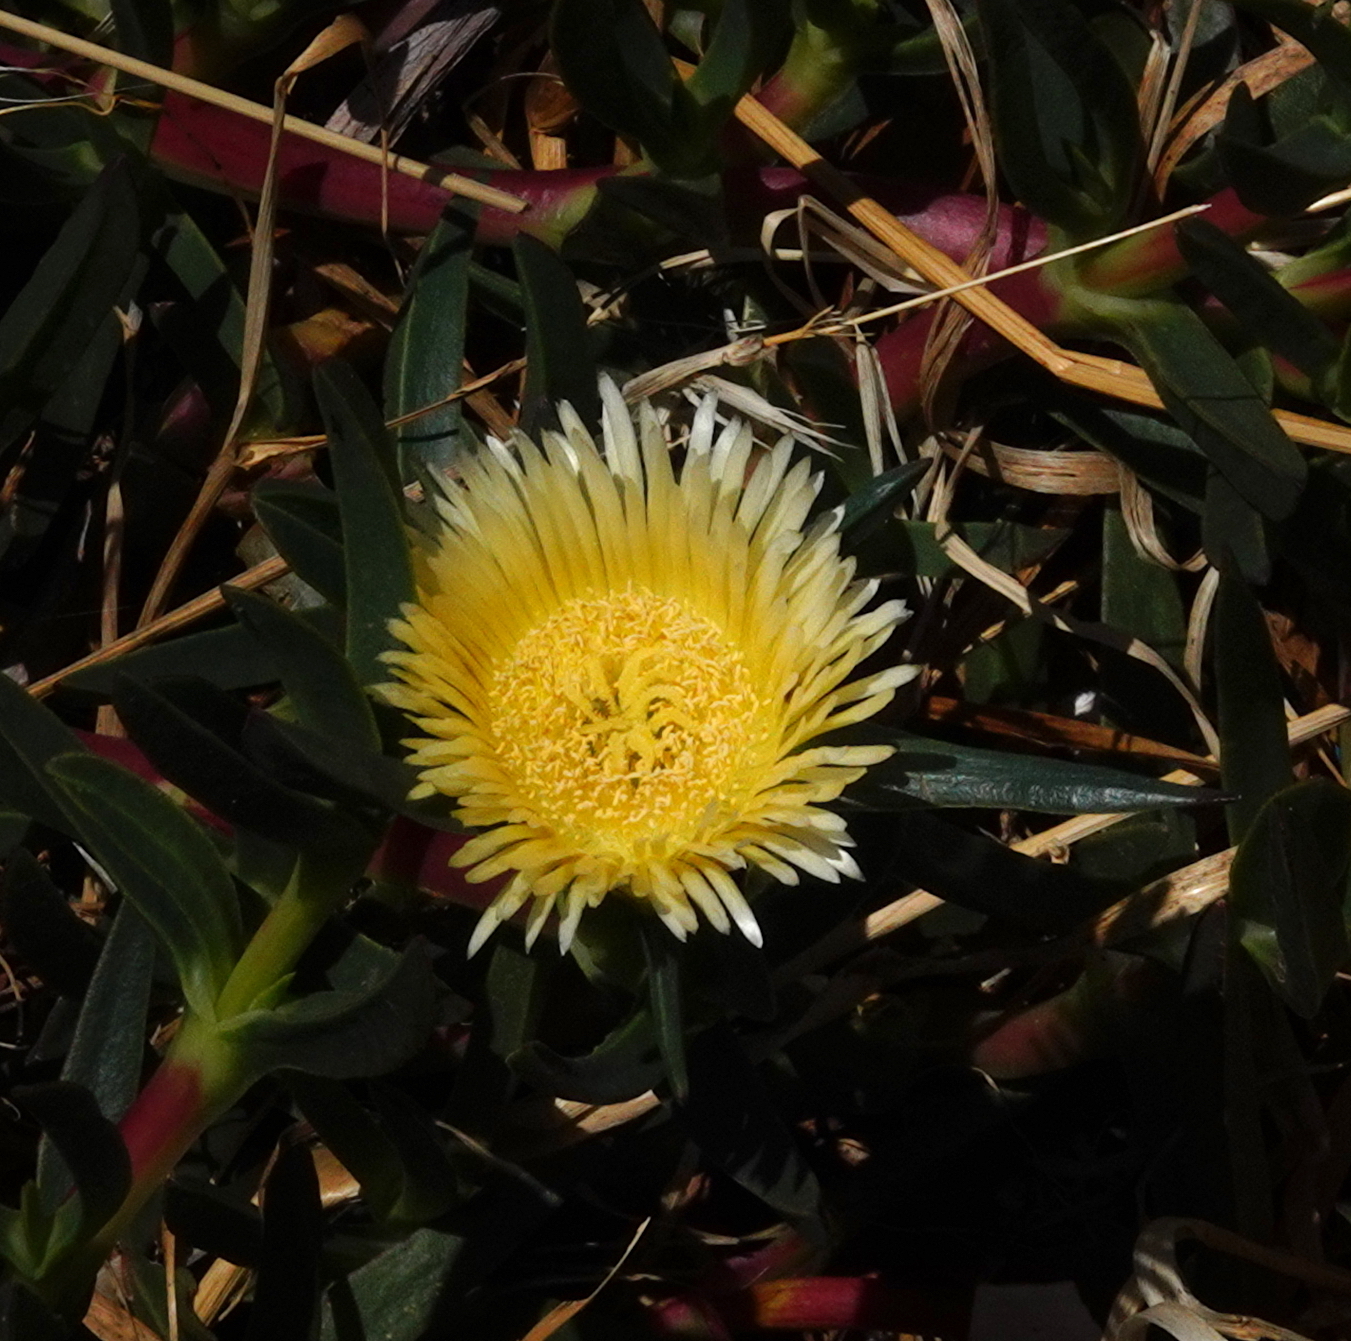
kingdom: Plantae
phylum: Tracheophyta
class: Magnoliopsida
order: Caryophyllales
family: Aizoaceae
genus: Carpobrotus
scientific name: Carpobrotus edulis
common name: Hottentot-fig
